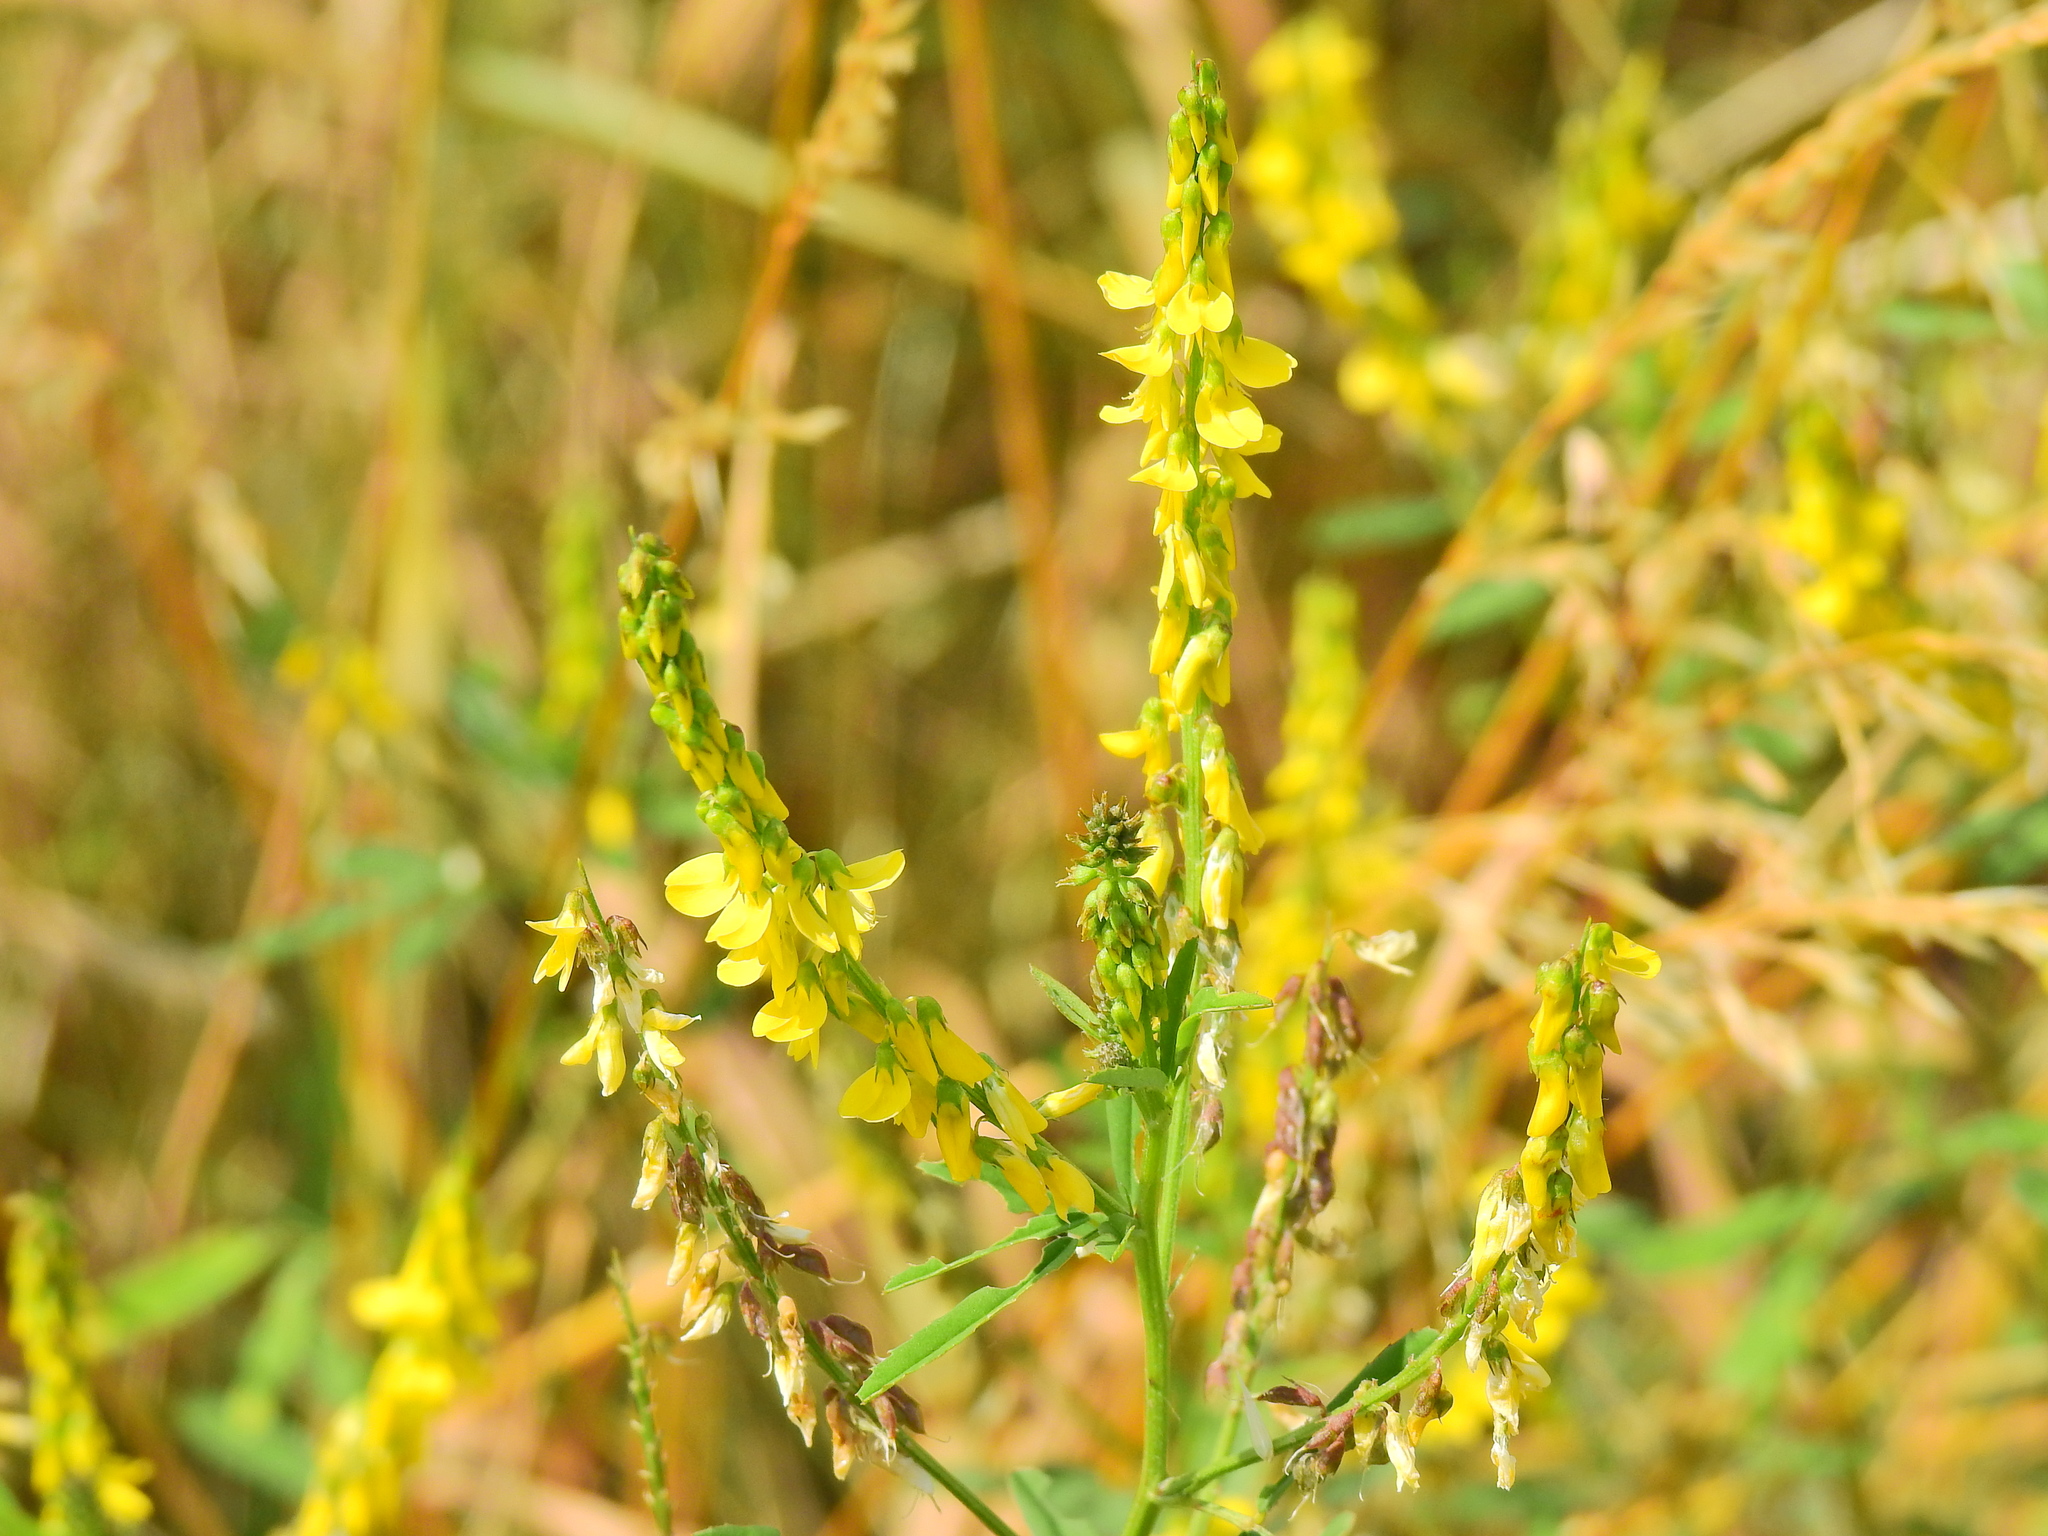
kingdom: Plantae
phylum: Tracheophyta
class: Magnoliopsida
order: Fabales
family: Fabaceae
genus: Melilotus
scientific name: Melilotus officinalis
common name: Sweetclover
